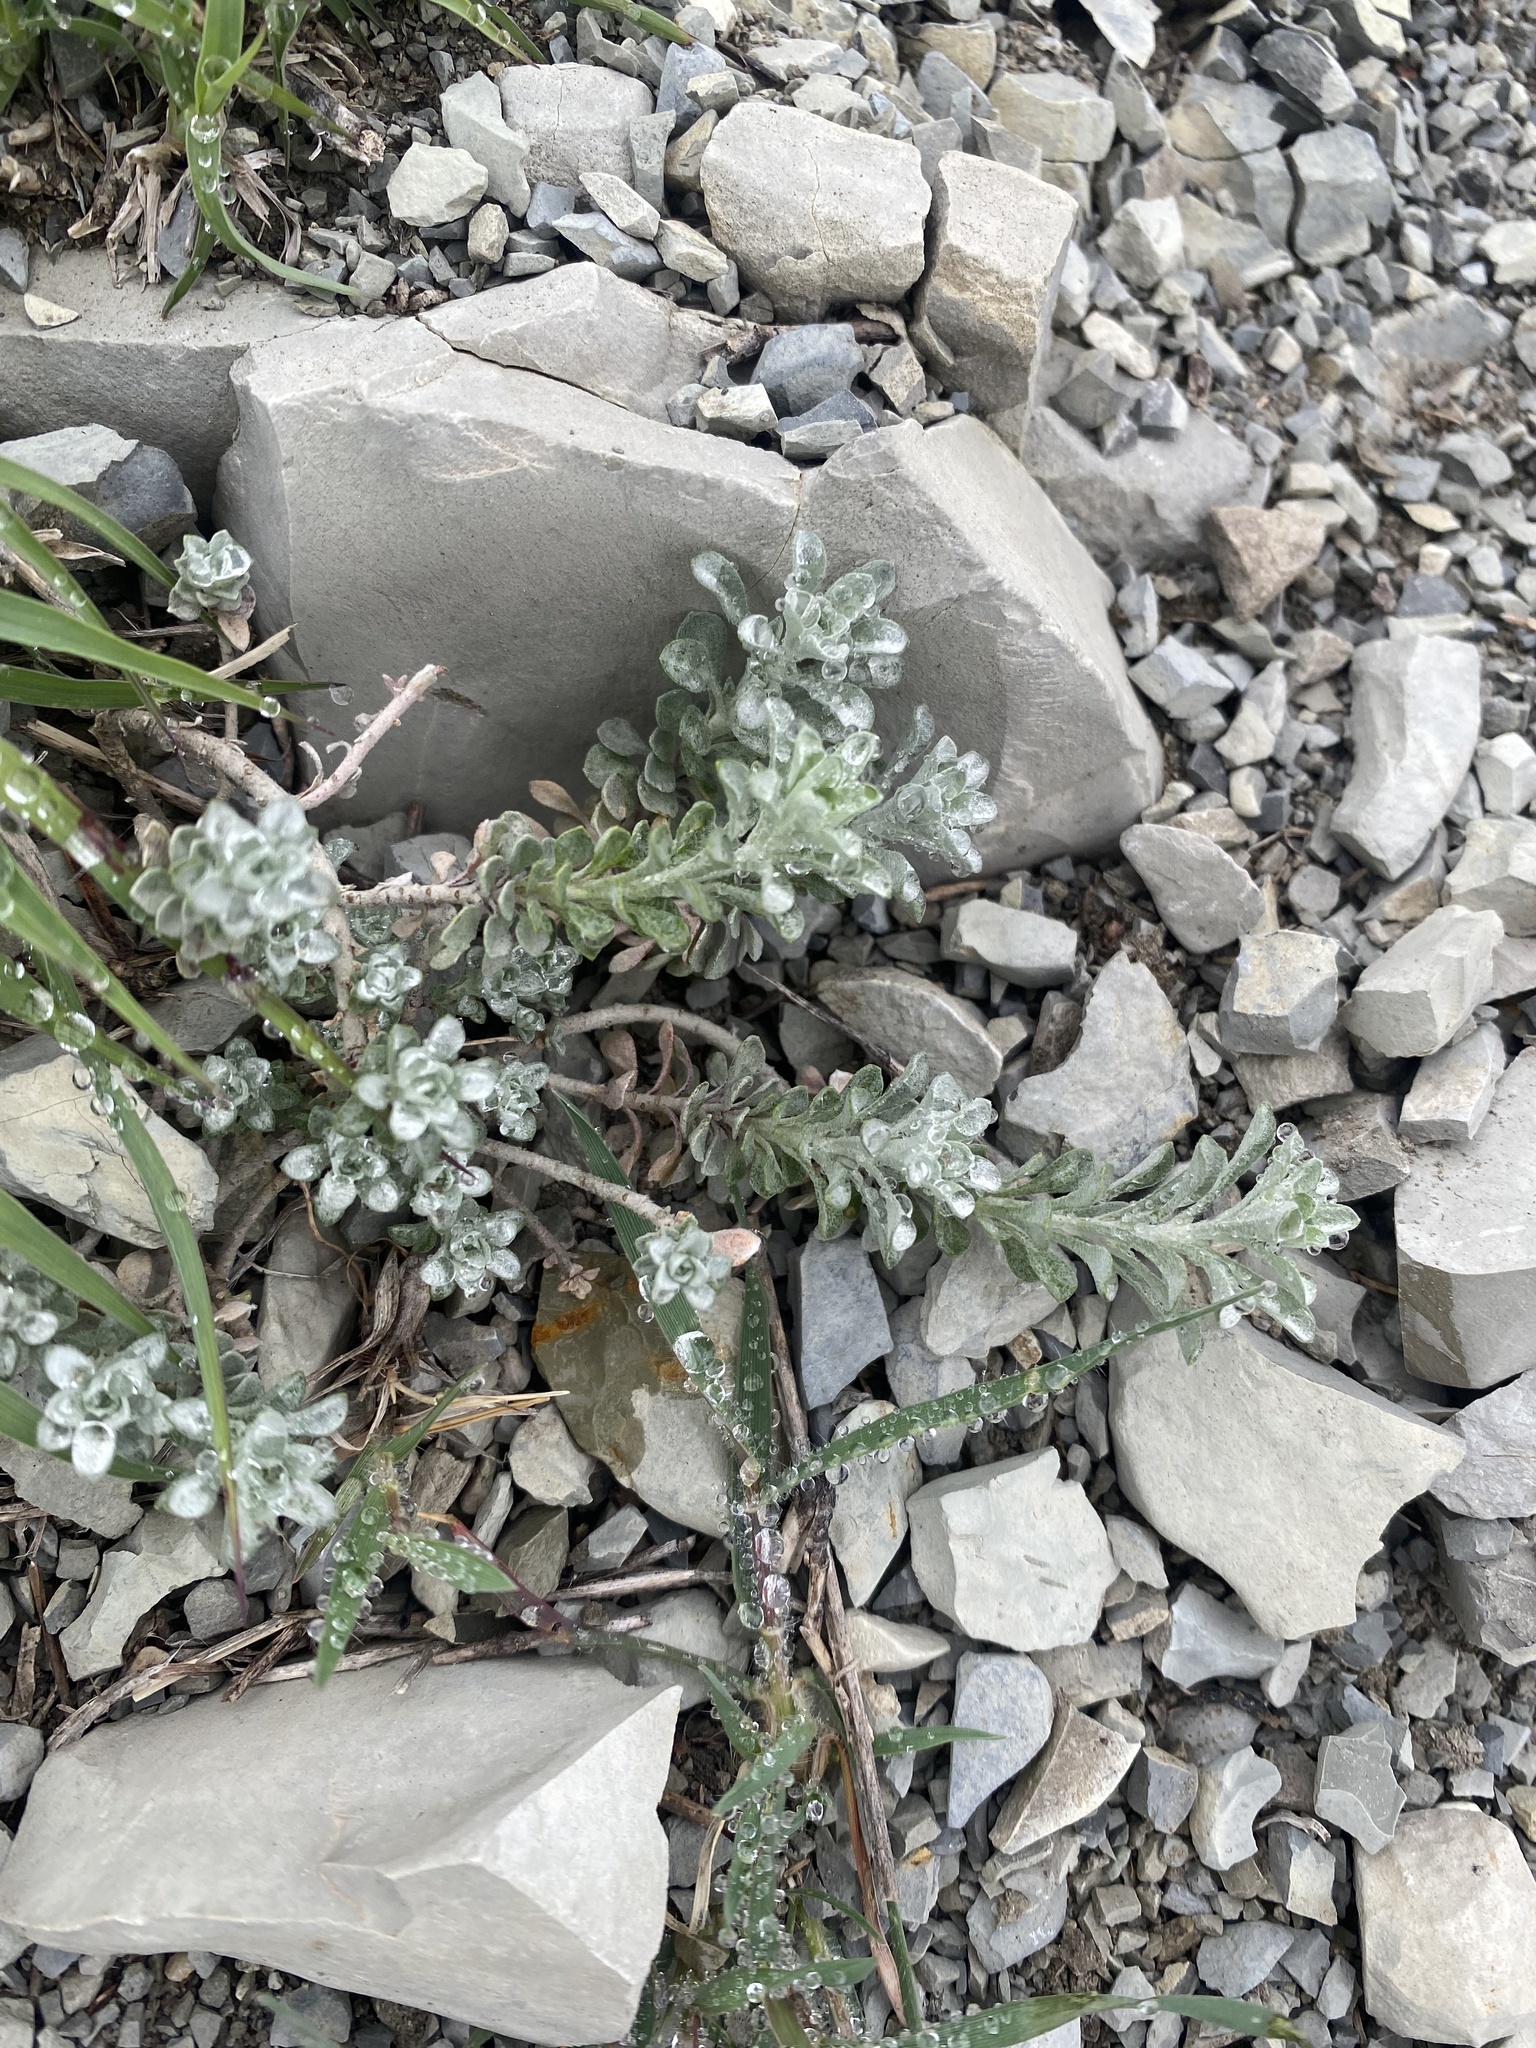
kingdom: Plantae
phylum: Tracheophyta
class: Magnoliopsida
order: Brassicales
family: Brassicaceae
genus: Odontarrhena
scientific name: Odontarrhena obtusifolia
